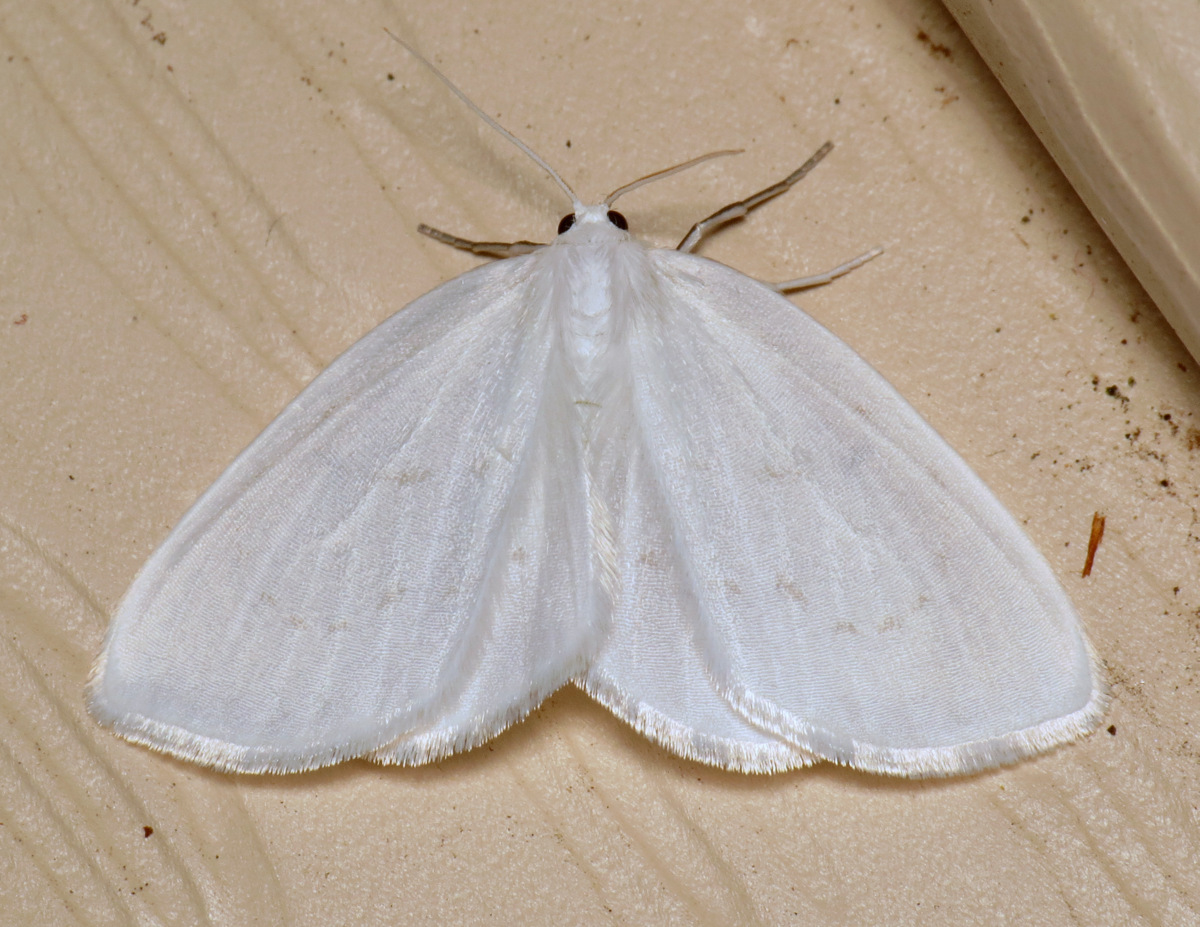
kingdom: Animalia
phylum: Arthropoda
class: Insecta
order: Lepidoptera
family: Drepanidae
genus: Eudeilinia
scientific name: Eudeilinia herminiata
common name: Northern eudeilinea moth
